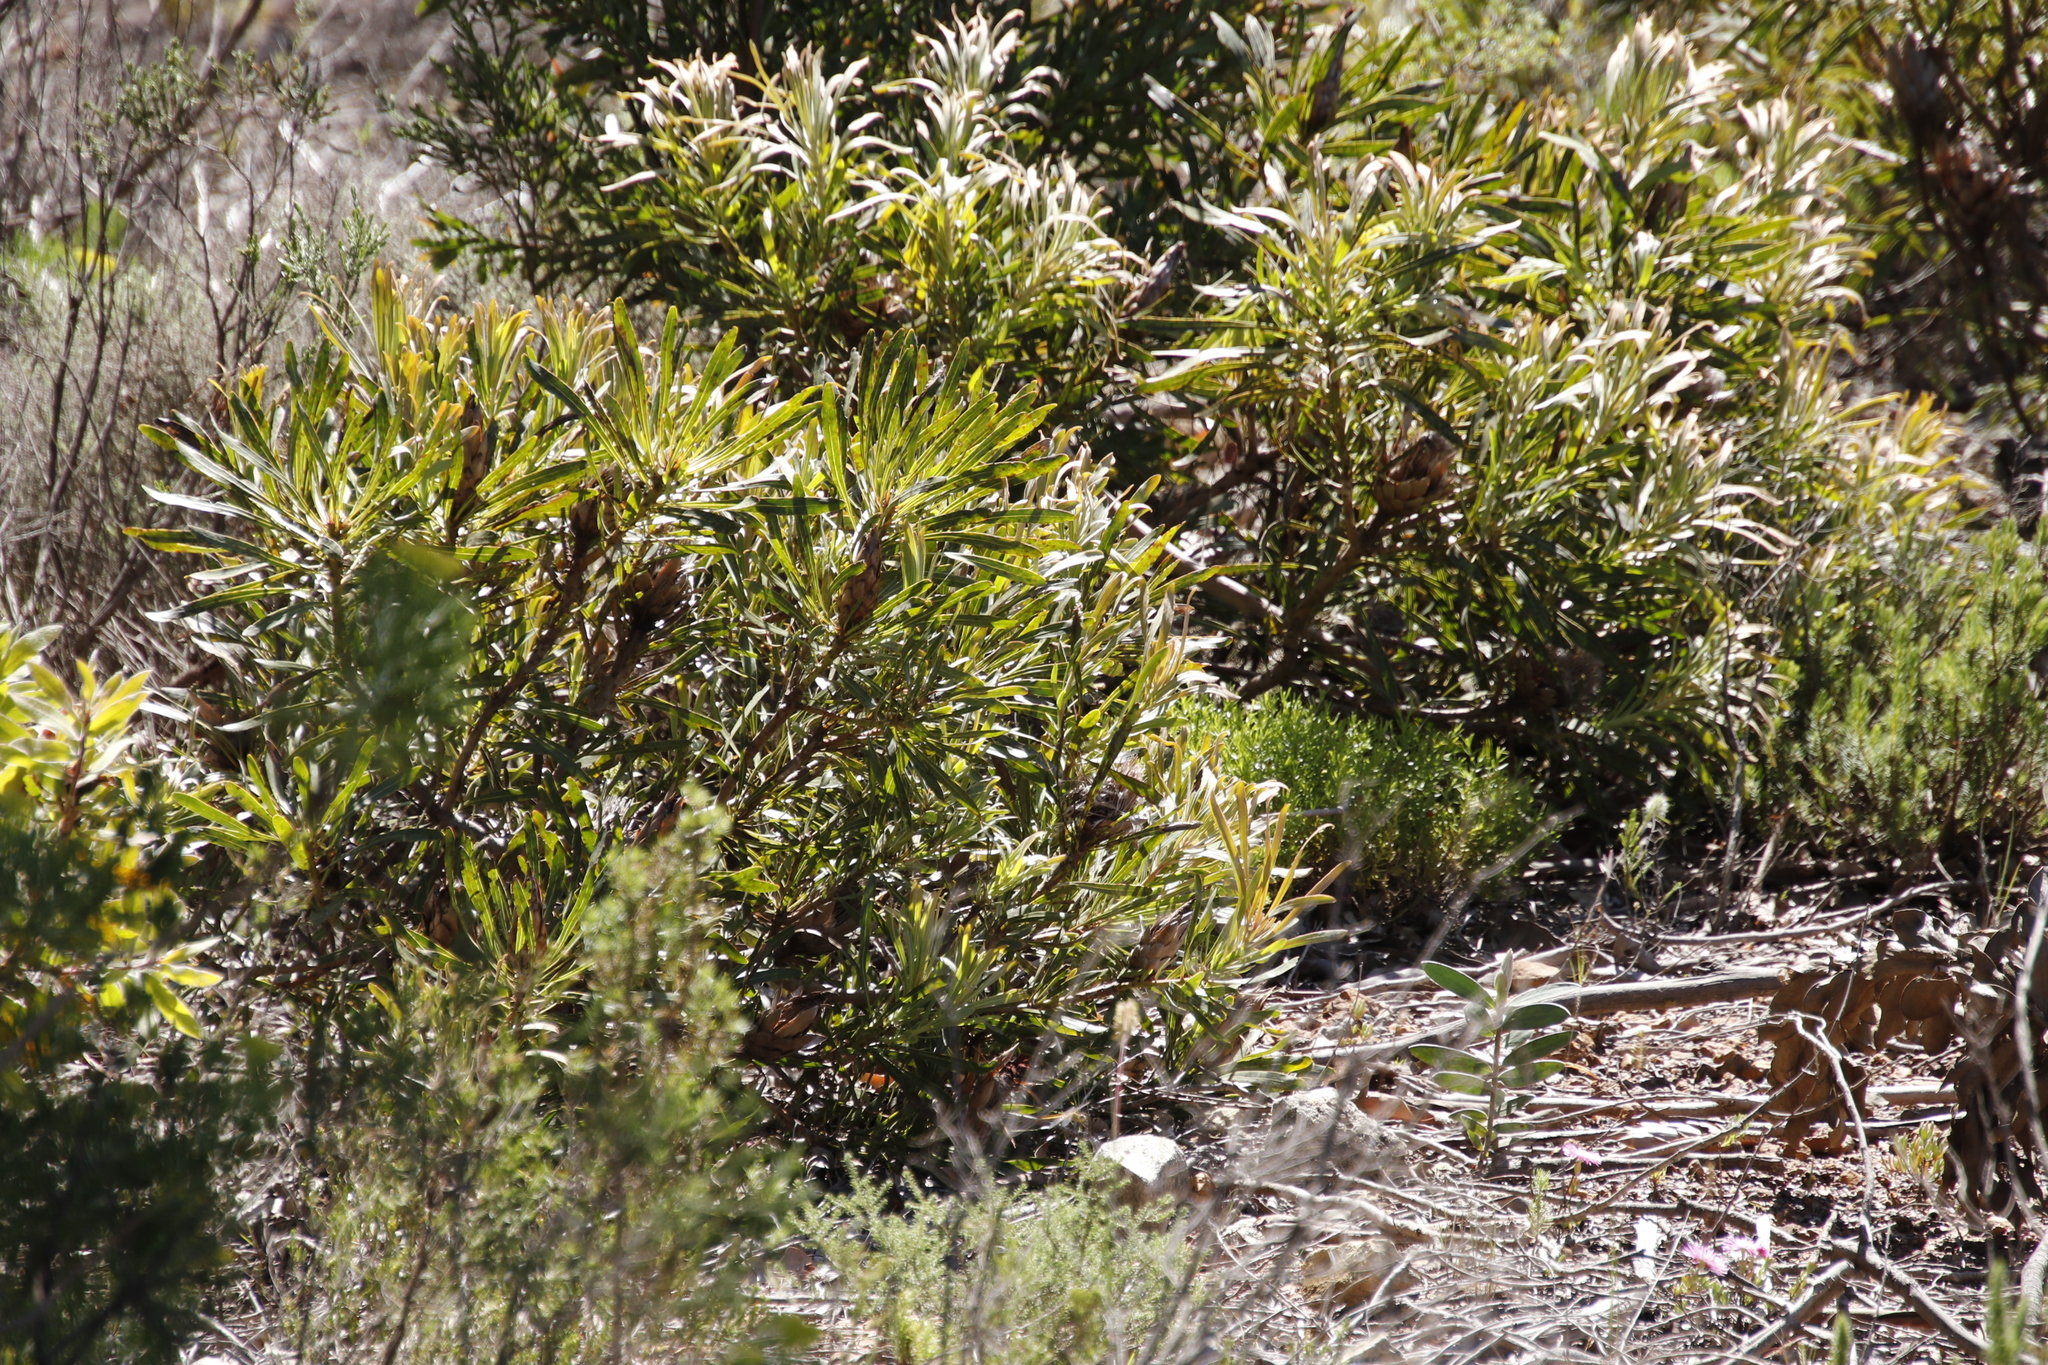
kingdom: Plantae
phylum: Tracheophyta
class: Magnoliopsida
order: Proteales
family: Proteaceae
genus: Protea
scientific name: Protea longifolia
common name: Long-leaf sugarbush
